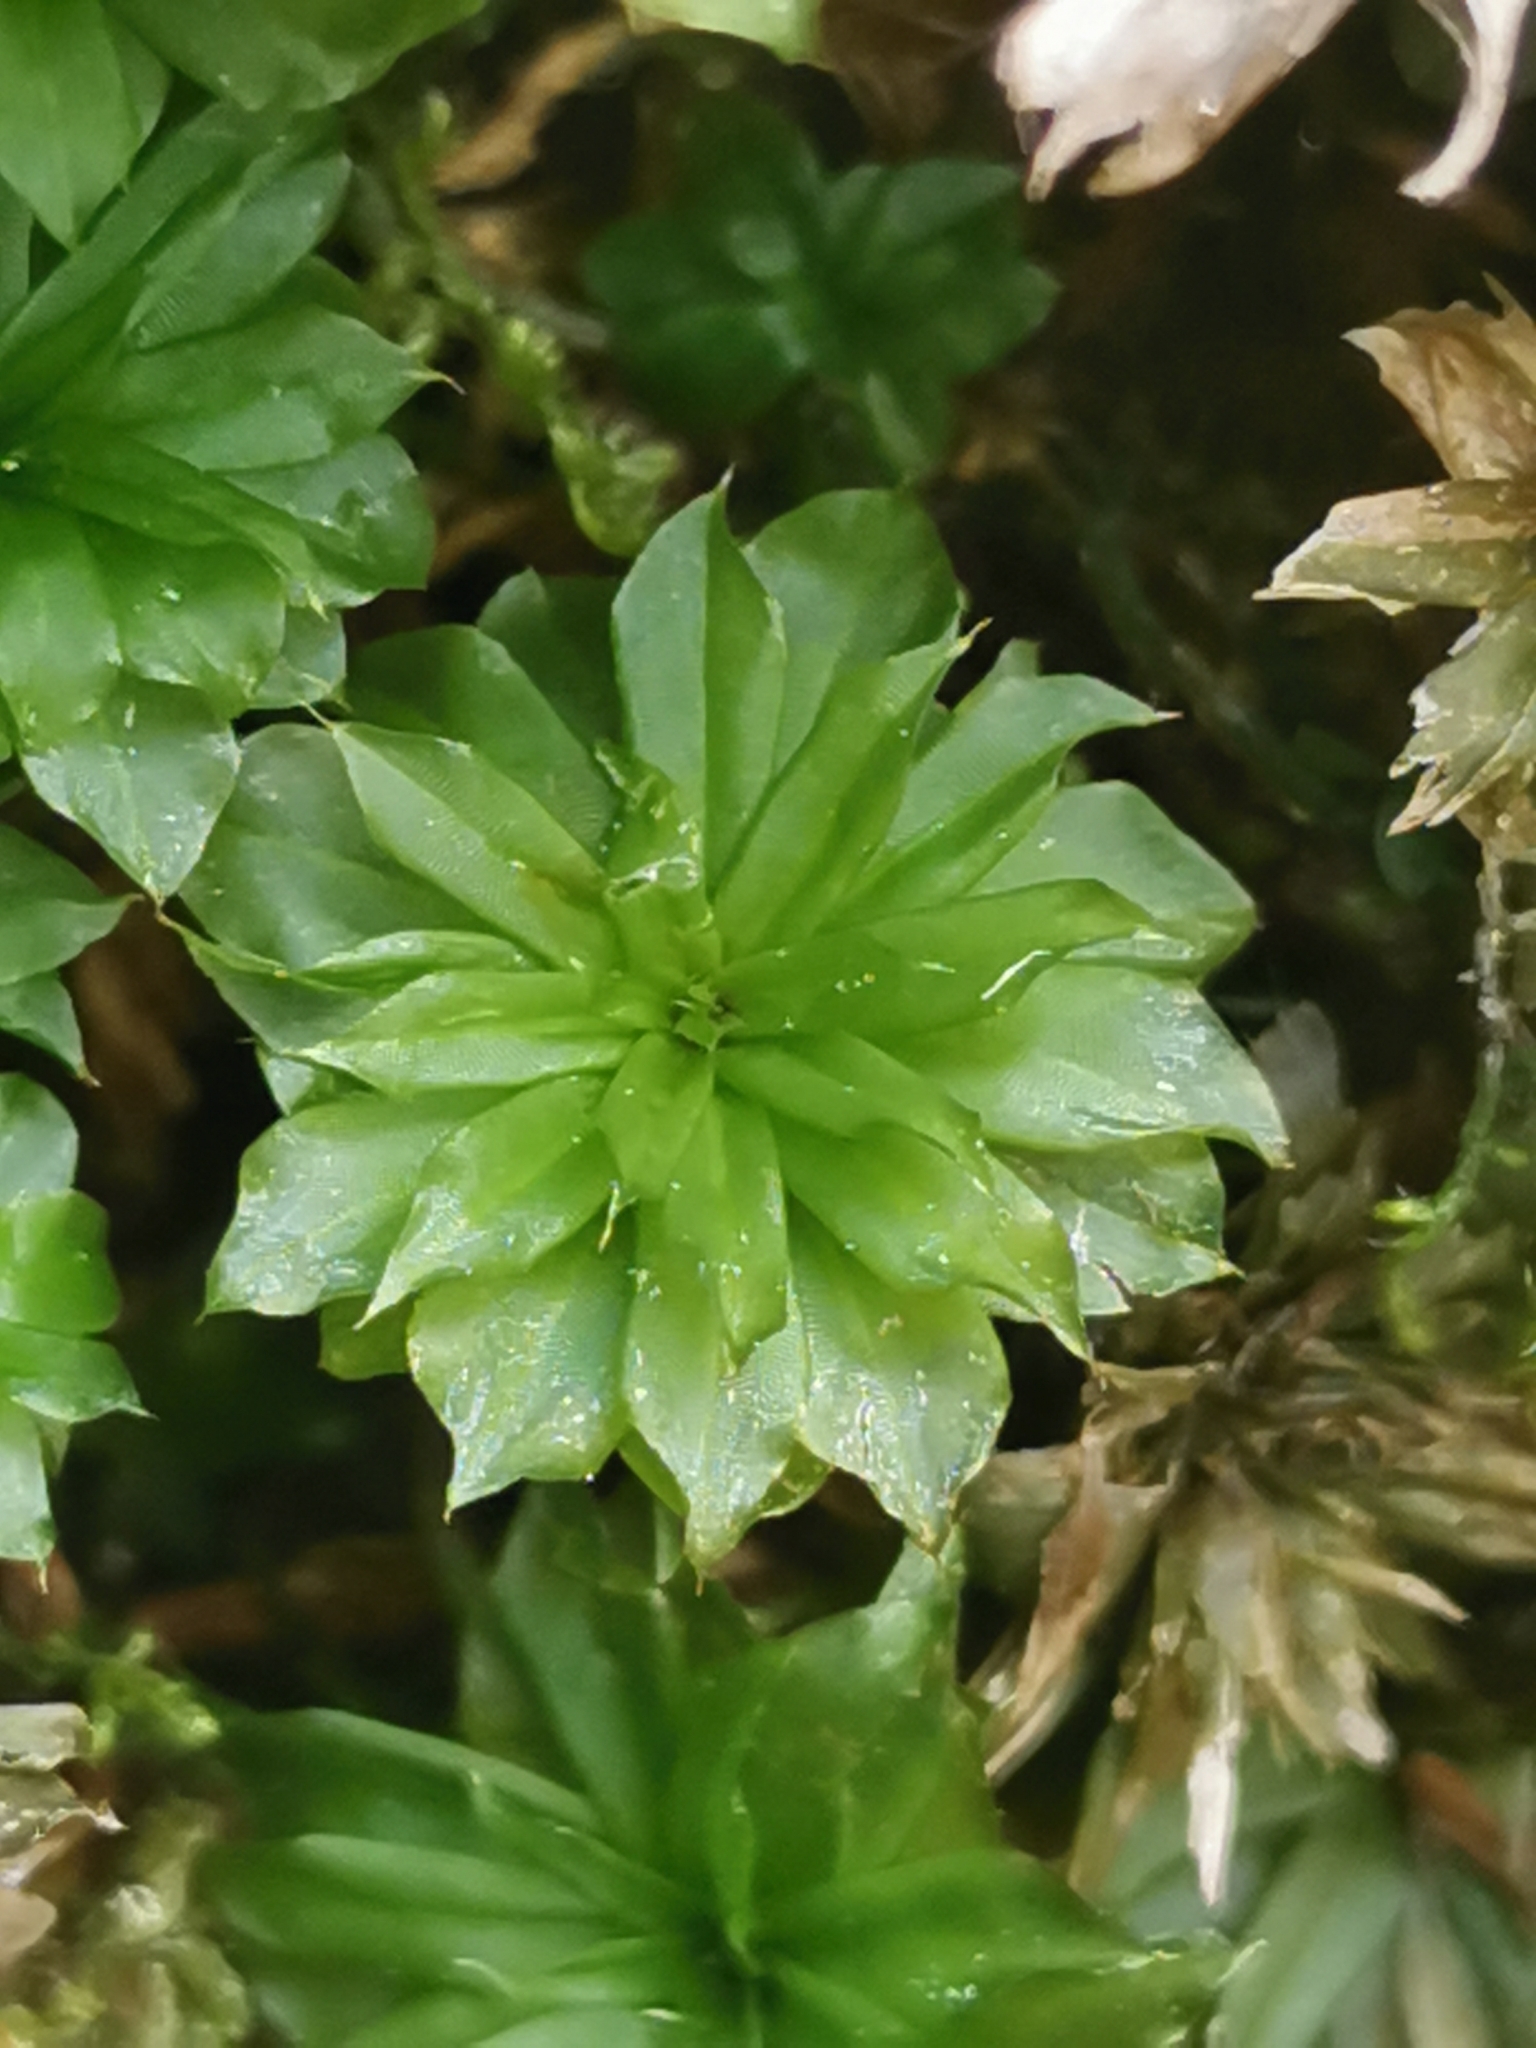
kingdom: Plantae
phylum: Bryophyta
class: Bryopsida
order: Bryales
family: Bryaceae
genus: Rhodobryum
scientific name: Rhodobryum ontariense
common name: Ontario rhodobryum moss
